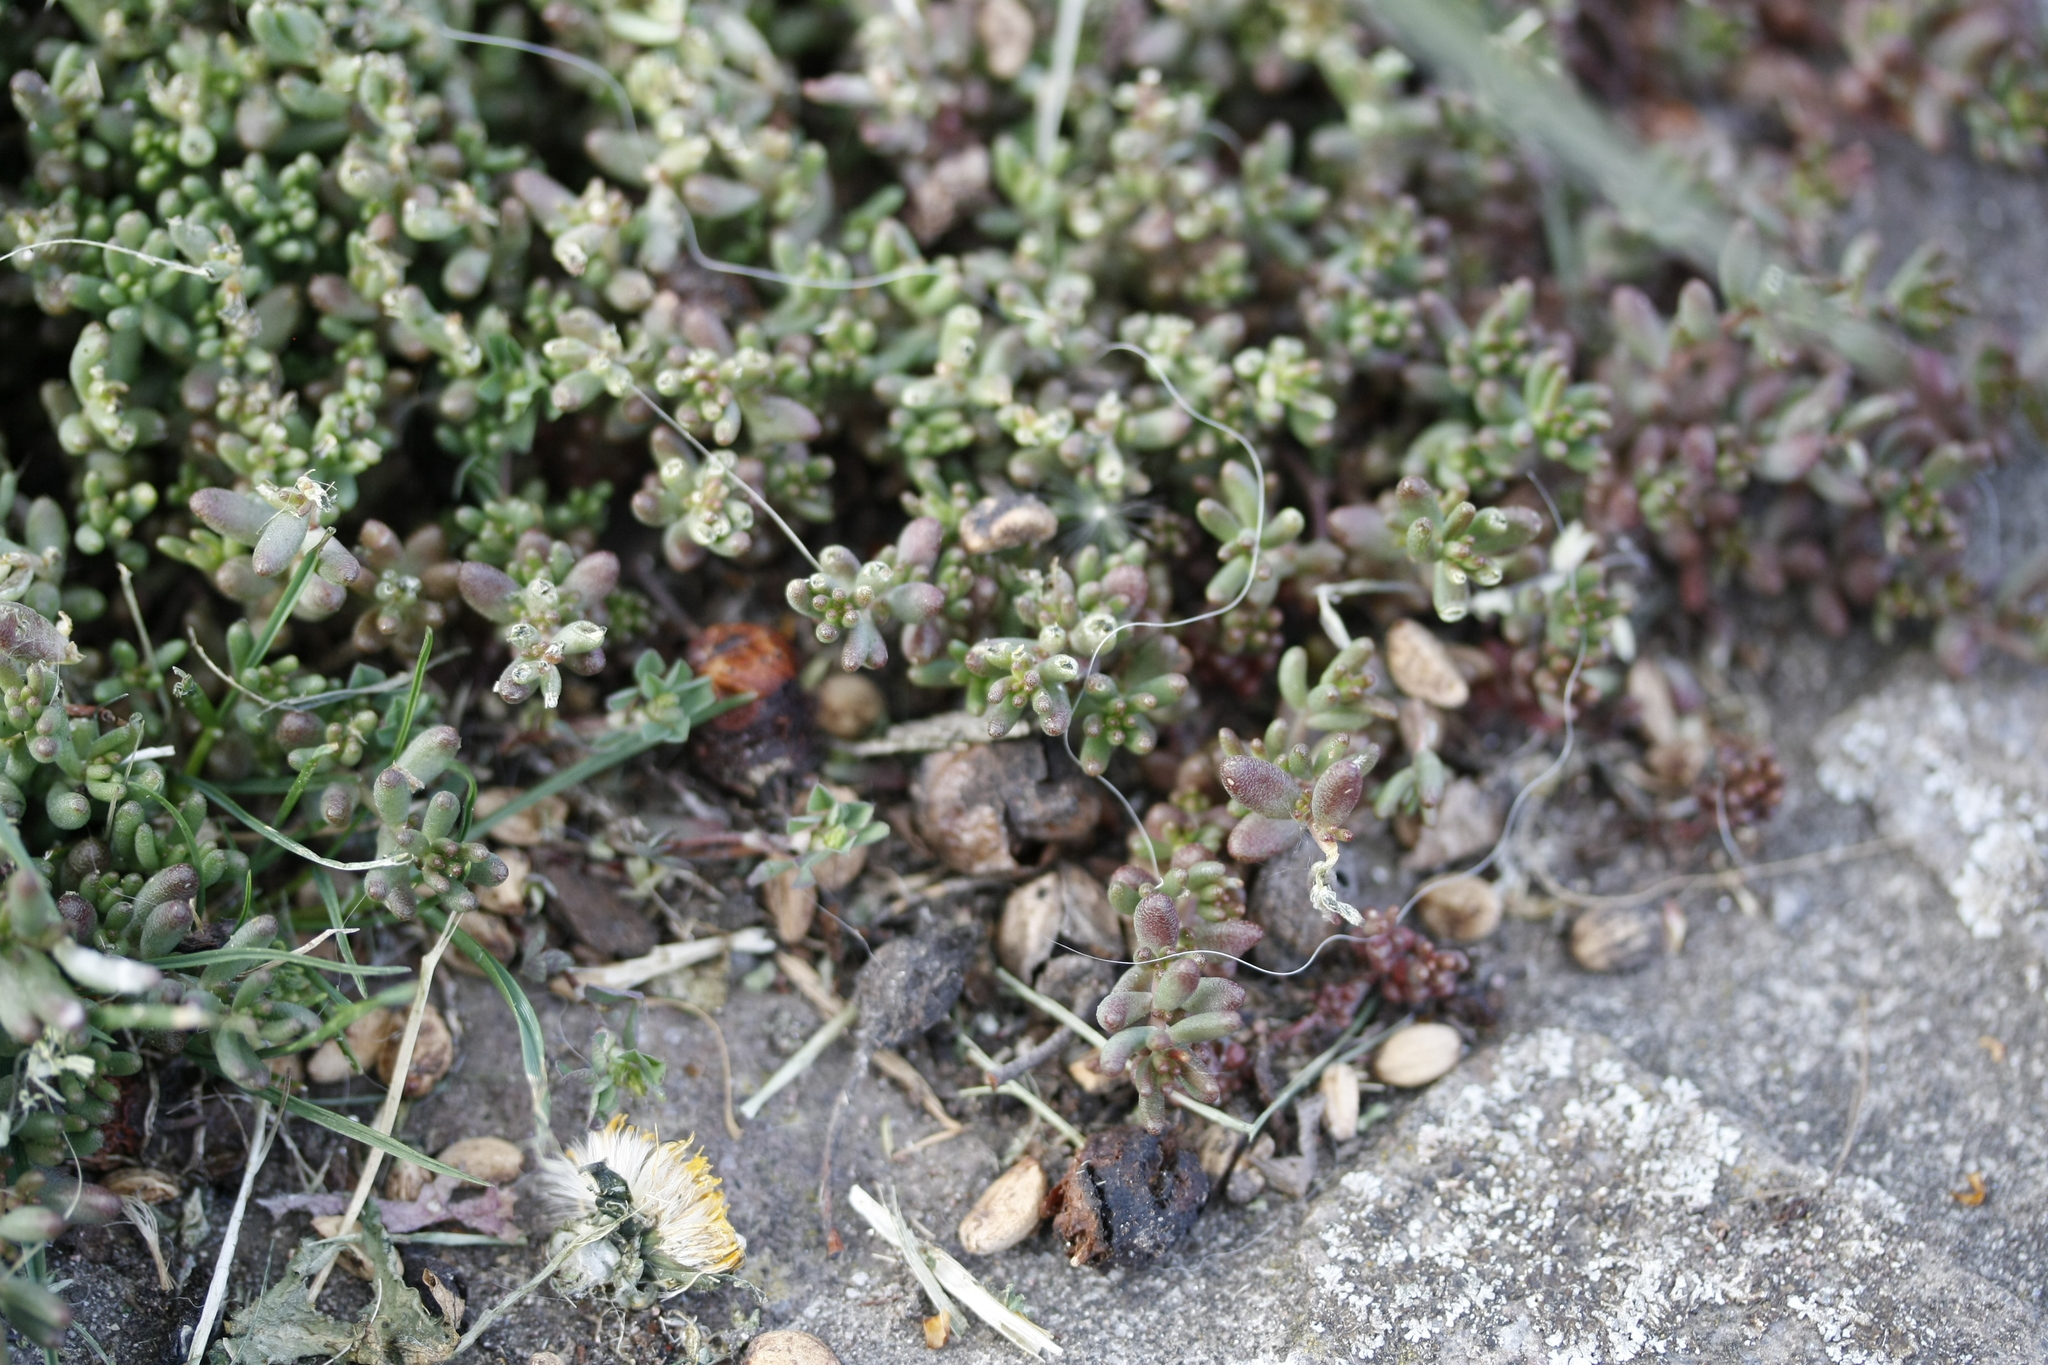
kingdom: Plantae
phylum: Tracheophyta
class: Magnoliopsida
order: Saxifragales
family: Crassulaceae
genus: Sedum
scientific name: Sedum album
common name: White stonecrop
